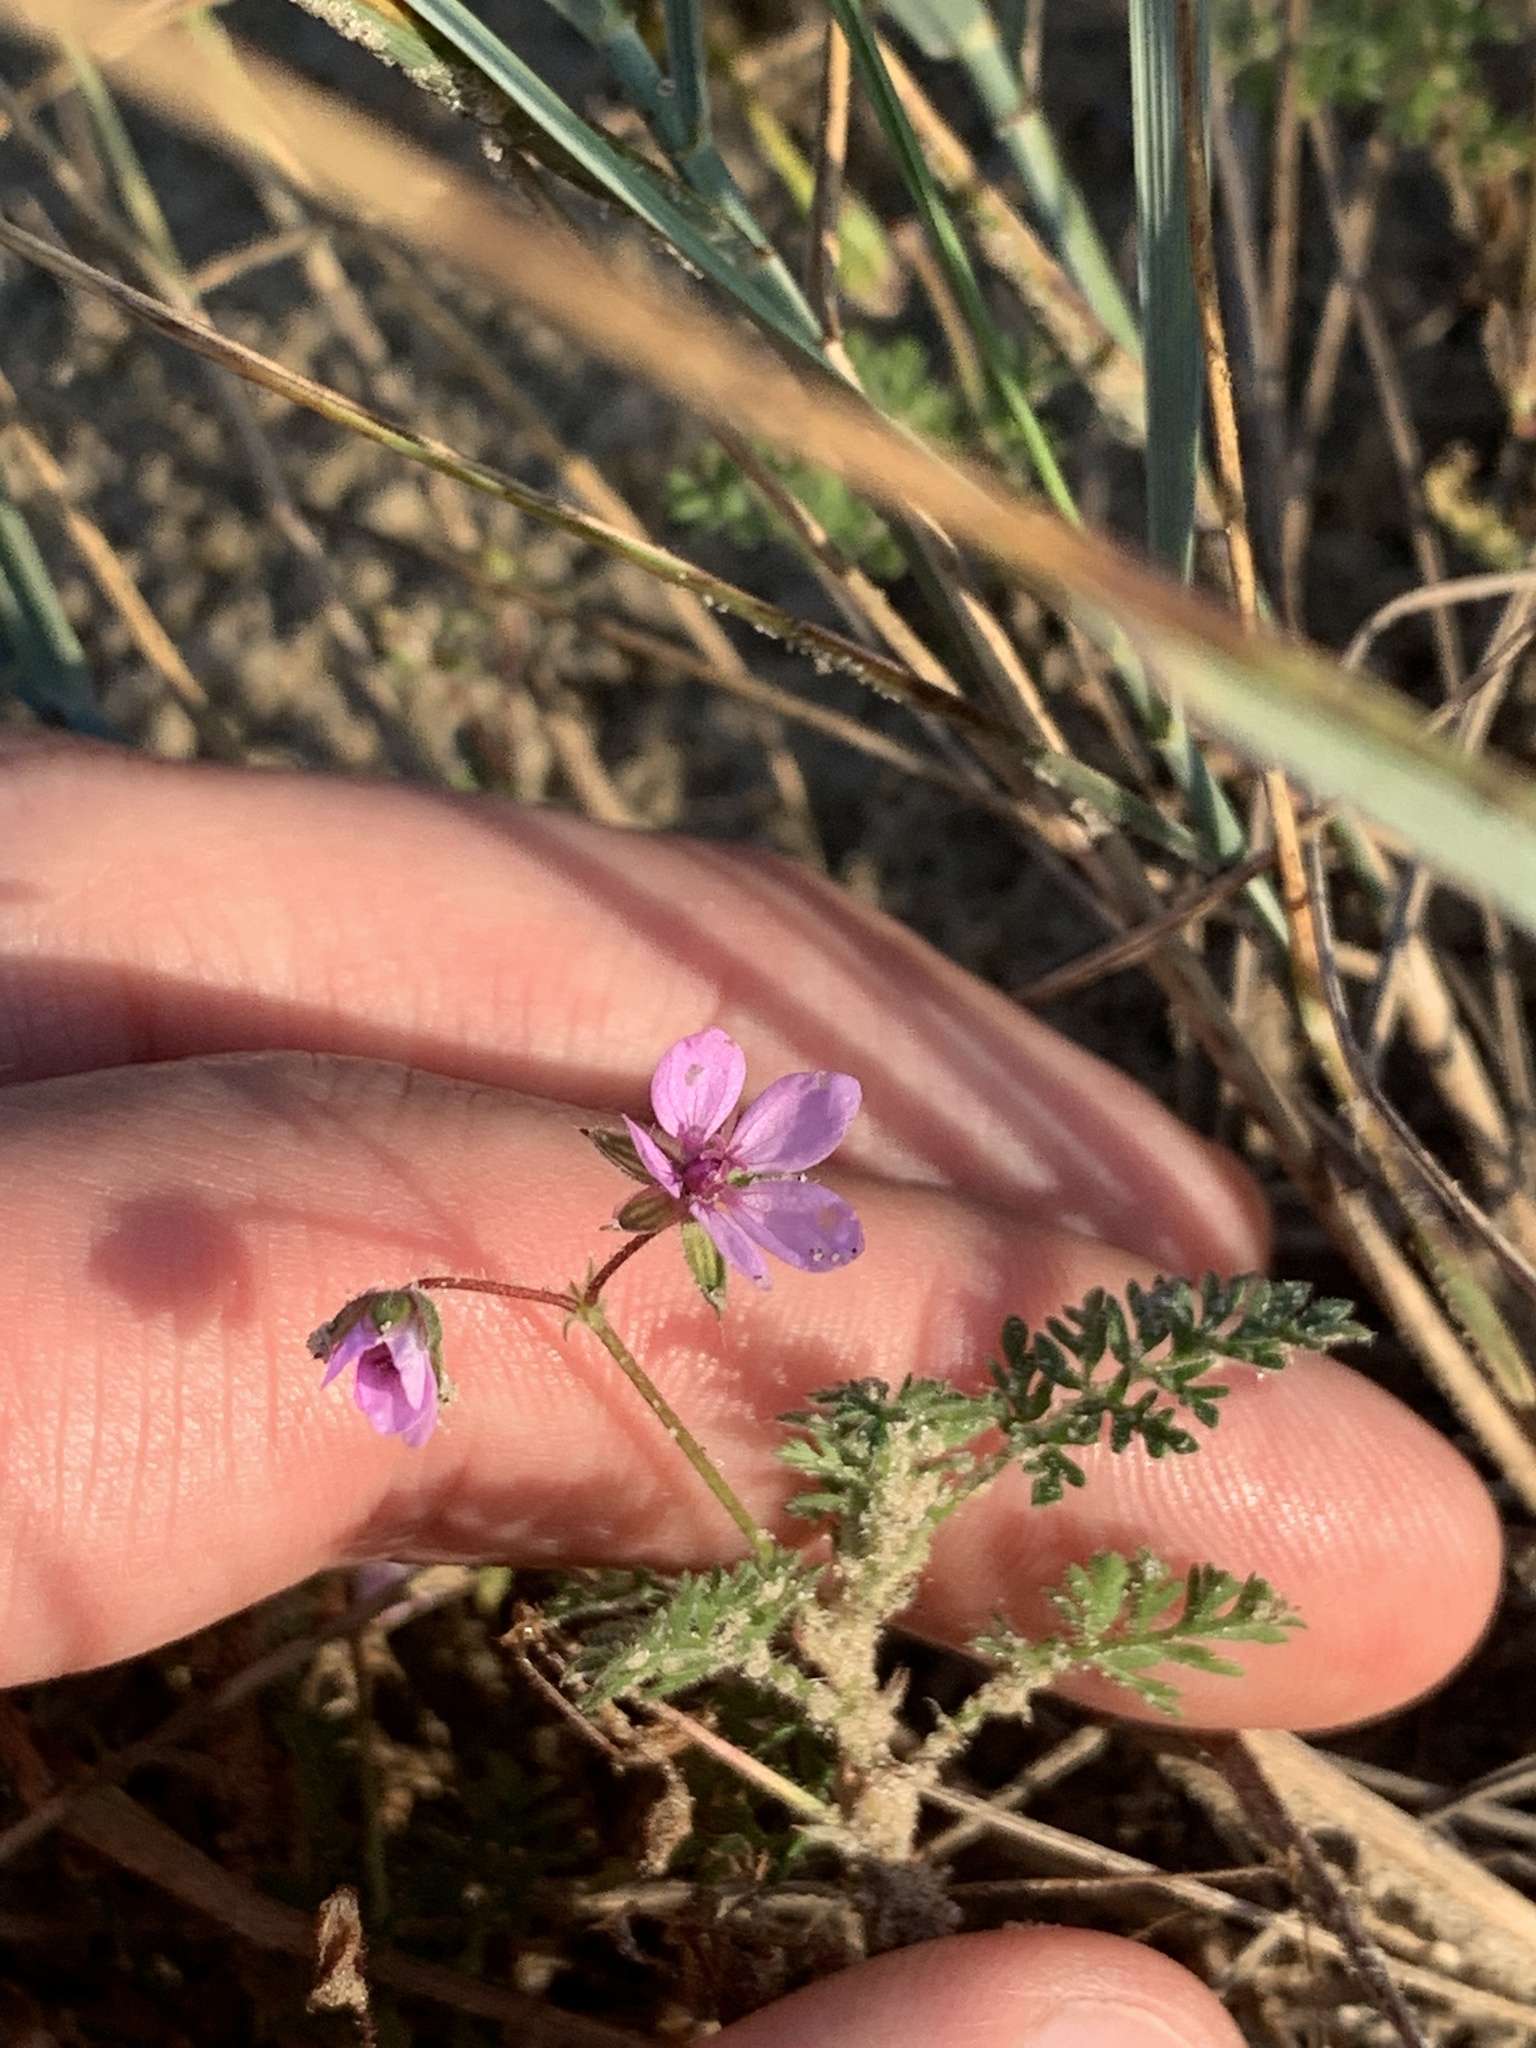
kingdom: Plantae
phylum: Tracheophyta
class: Magnoliopsida
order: Geraniales
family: Geraniaceae
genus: Erodium
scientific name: Erodium cicutarium
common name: Common stork's-bill
